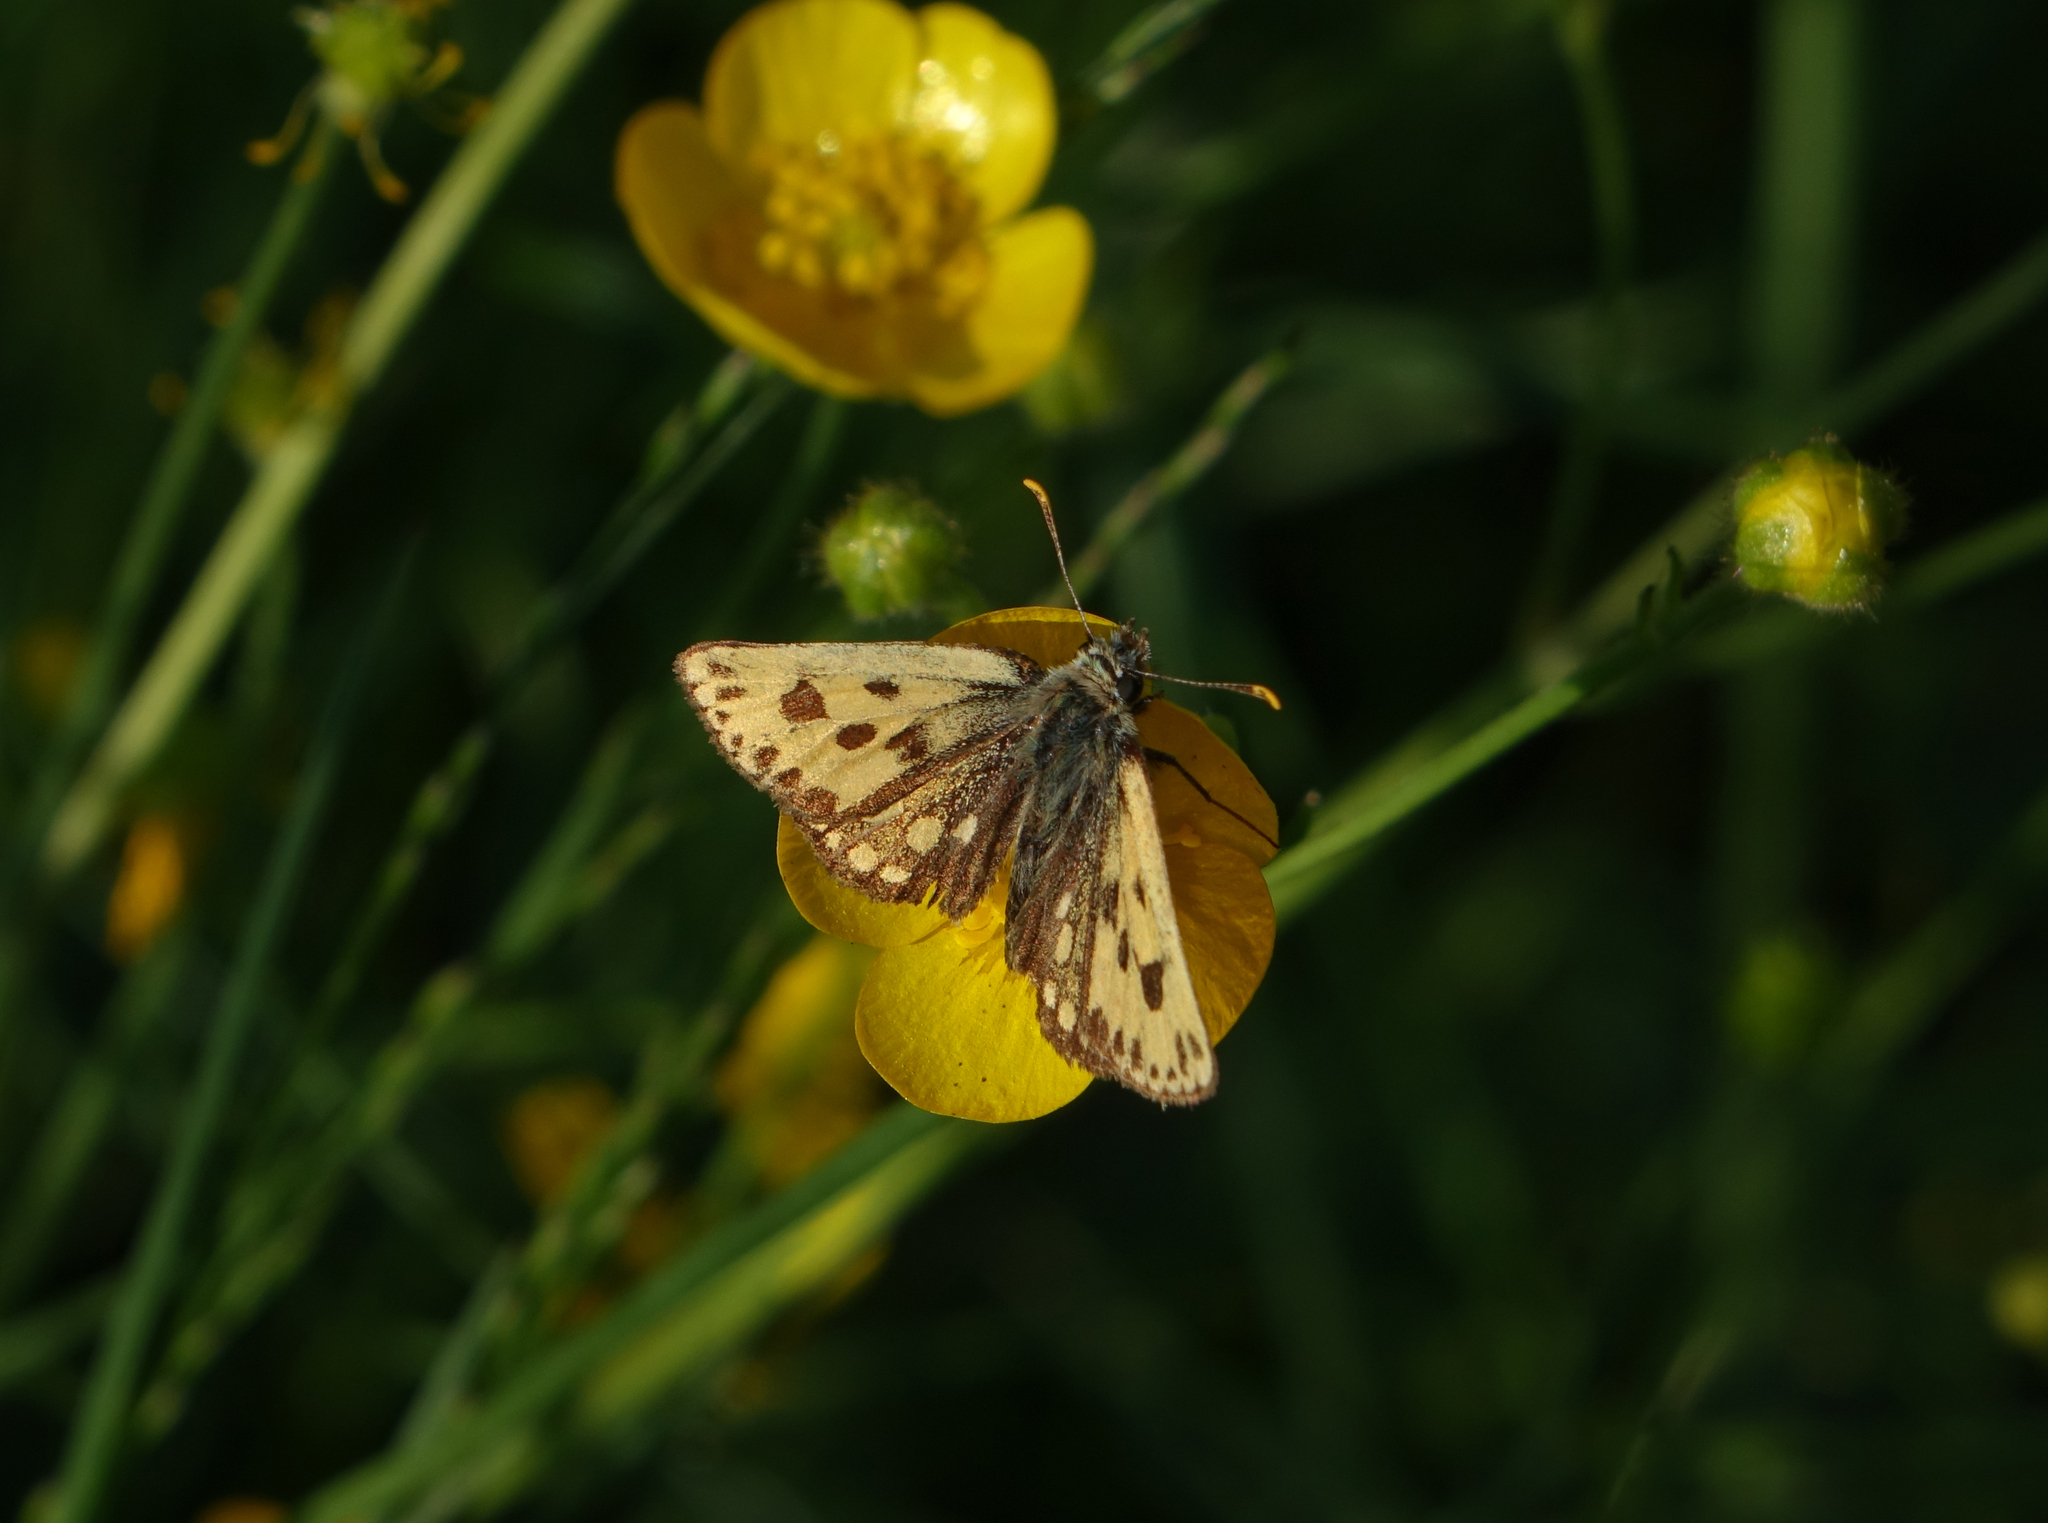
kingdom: Animalia
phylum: Arthropoda
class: Insecta
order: Lepidoptera
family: Hesperiidae
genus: Carterocephalus
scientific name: Carterocephalus silvicola
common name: Northern chequered skipper
